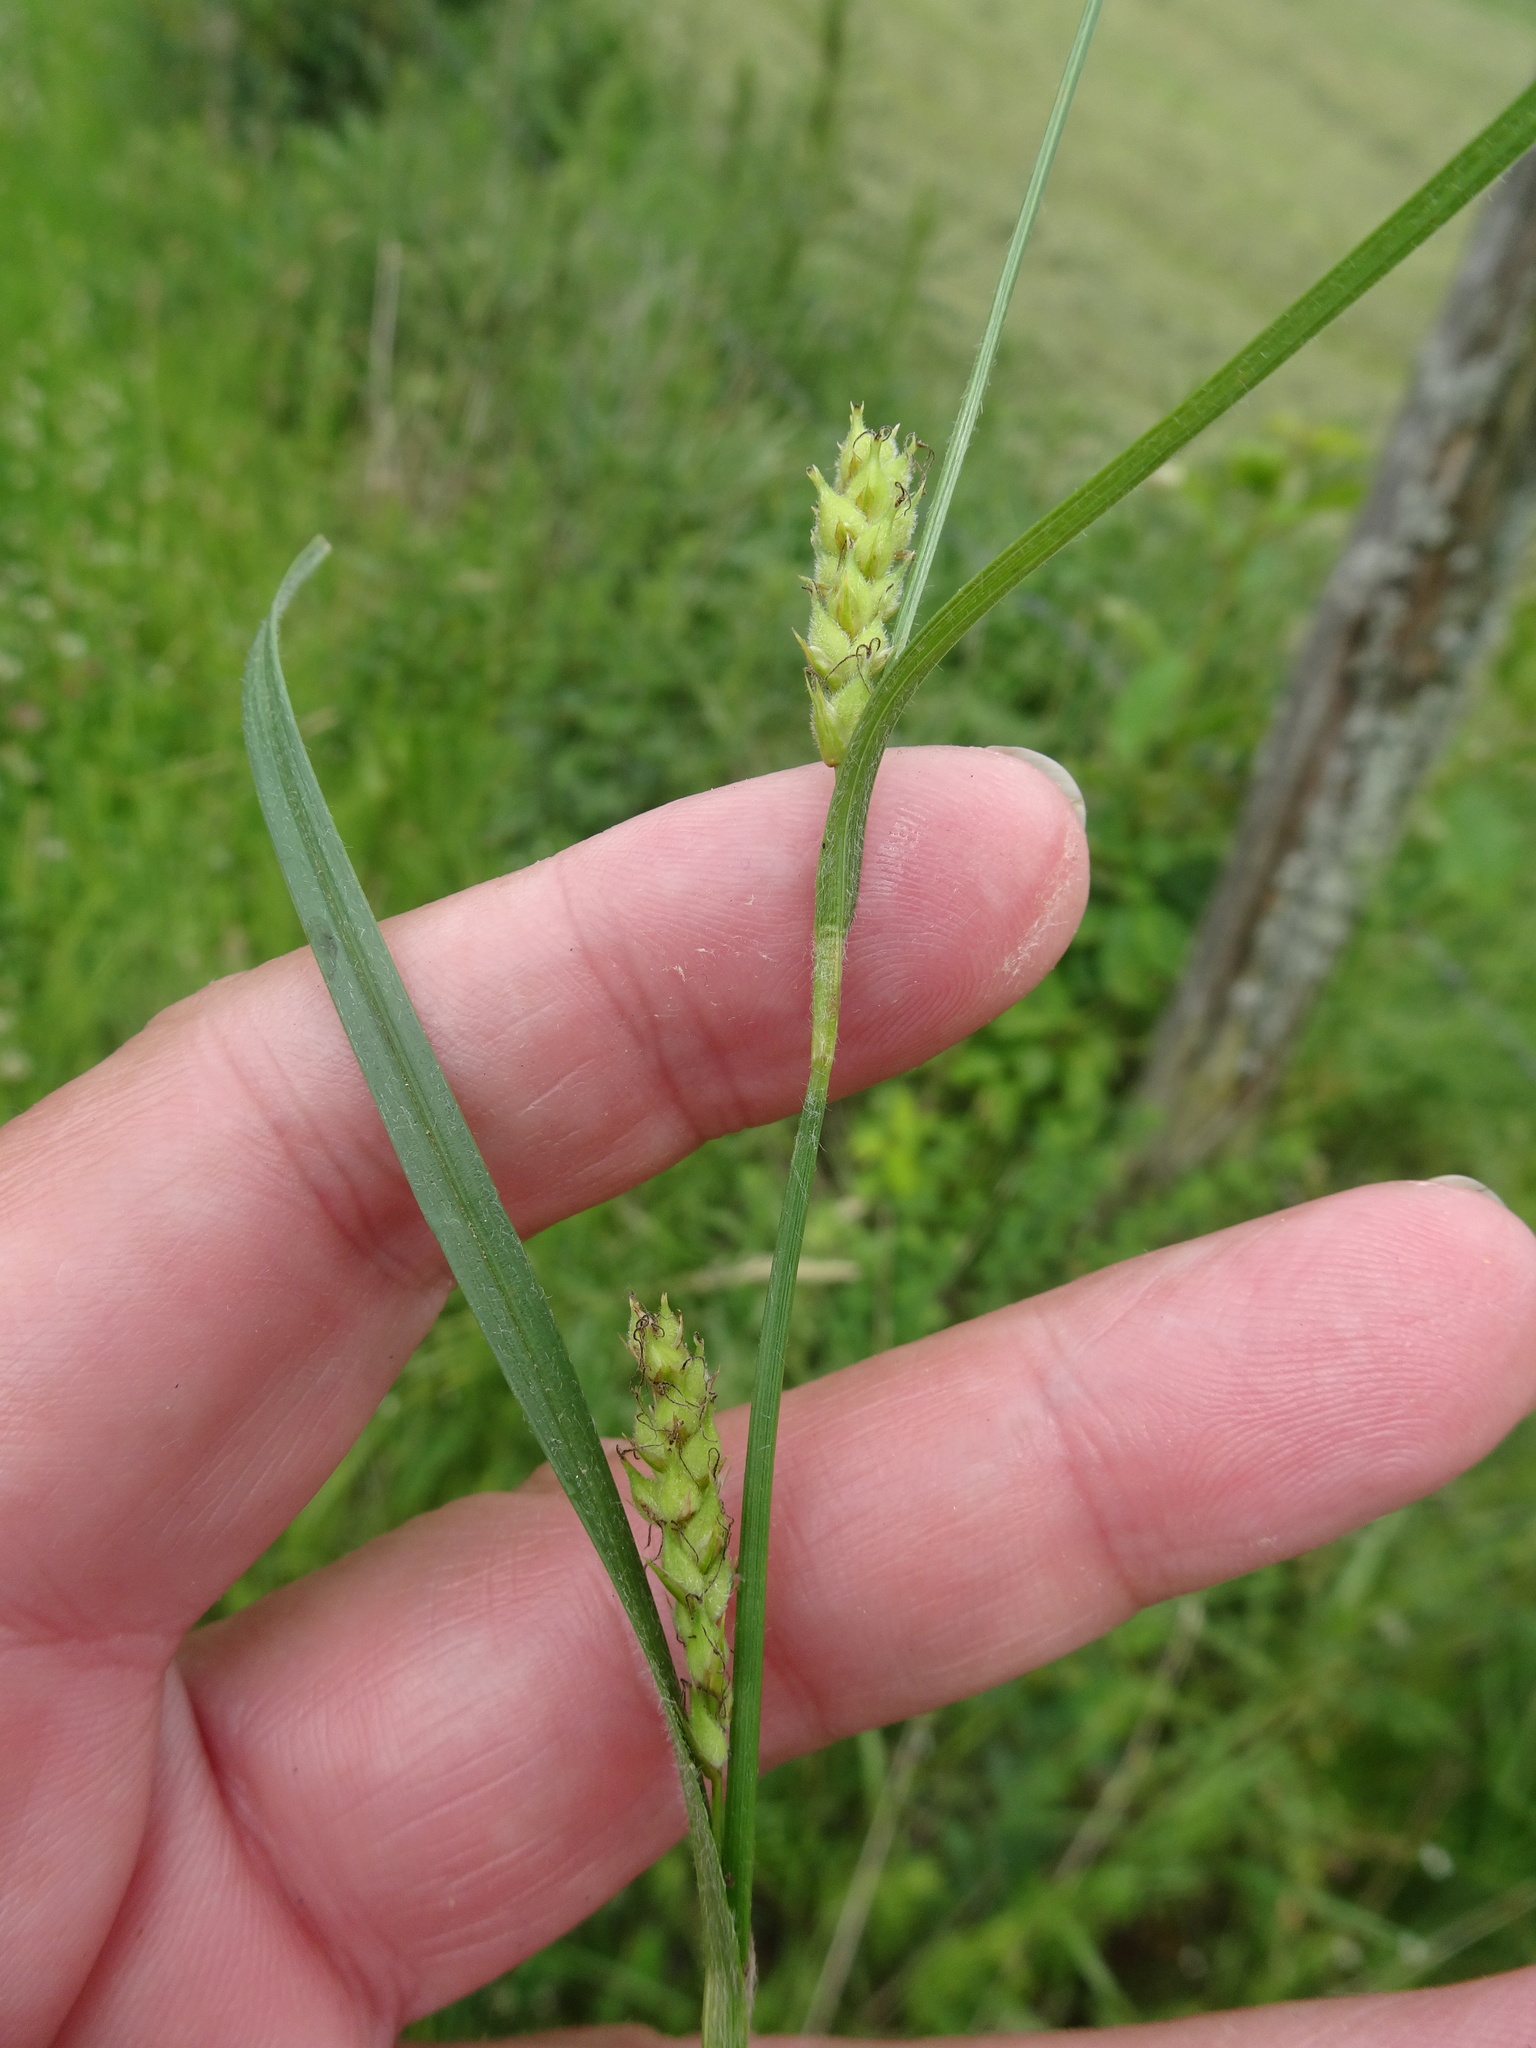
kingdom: Plantae
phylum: Tracheophyta
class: Liliopsida
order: Poales
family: Cyperaceae
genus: Carex
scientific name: Carex hirta
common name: Hairy sedge
